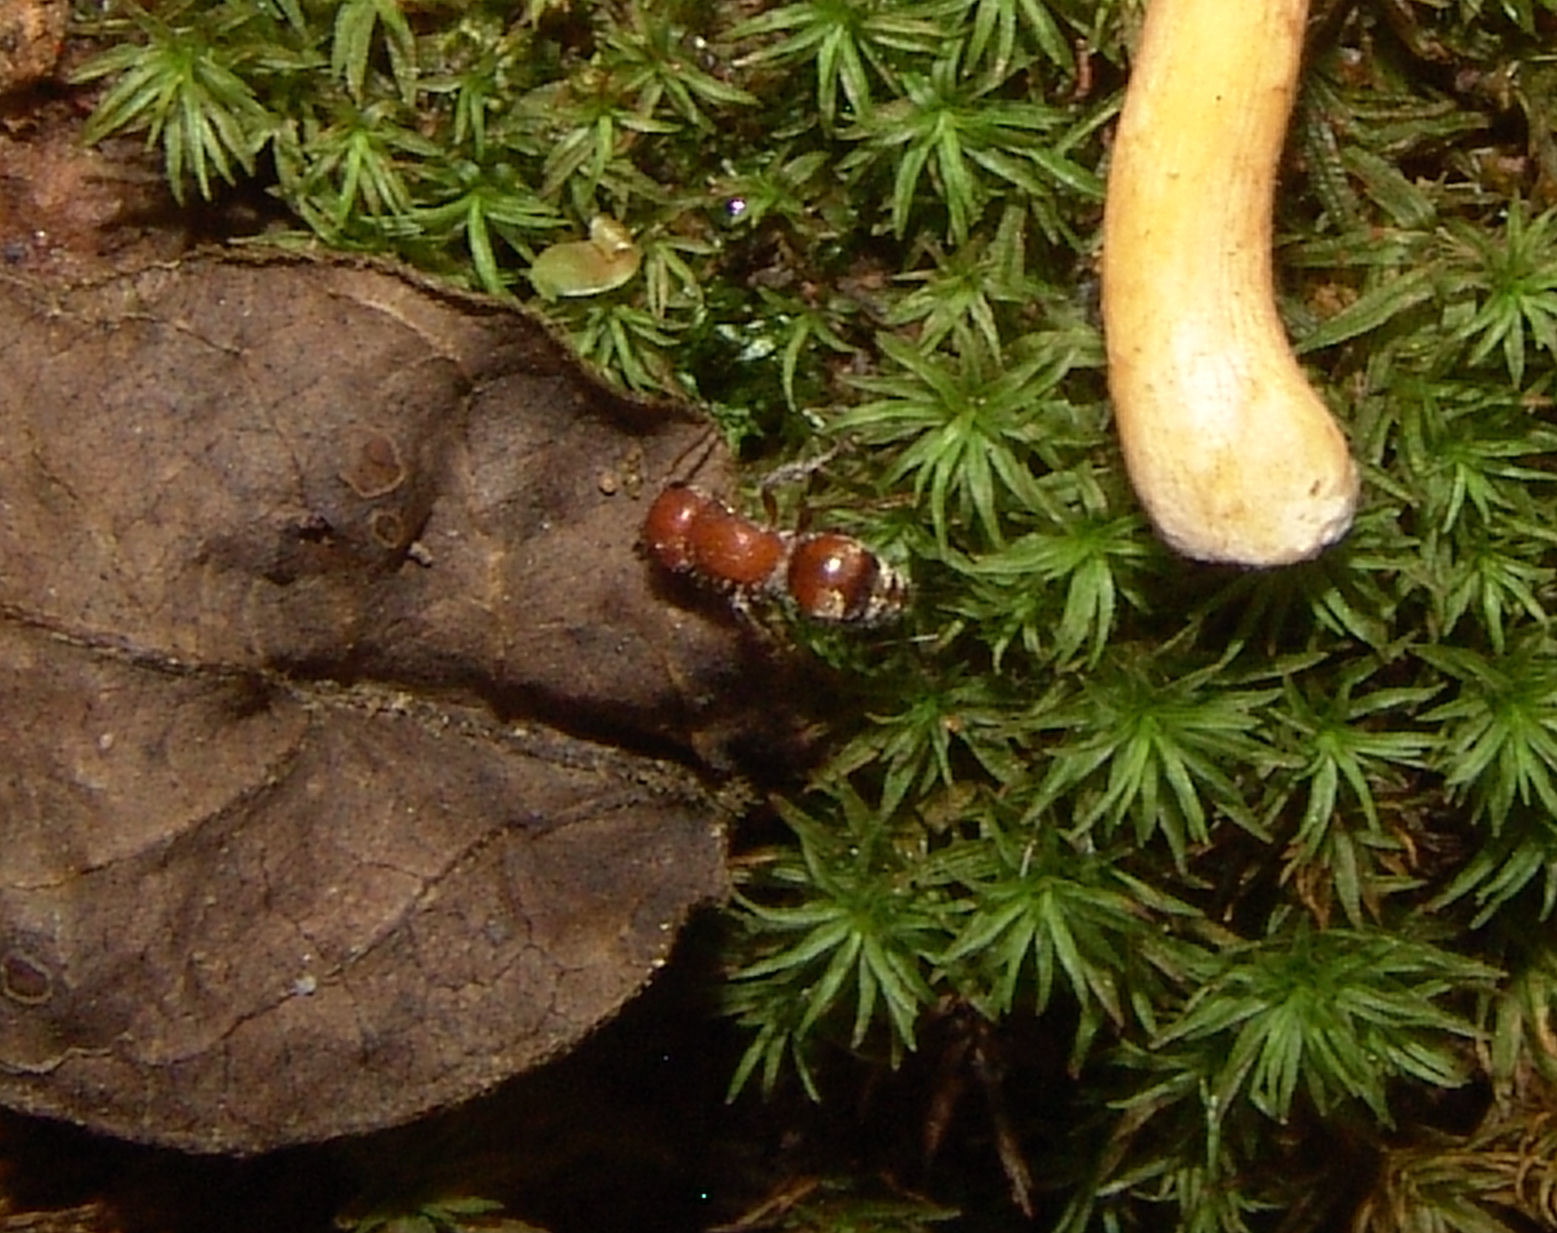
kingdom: Animalia
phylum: Arthropoda
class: Insecta
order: Hymenoptera
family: Mutillidae
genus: Pseudomethoca
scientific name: Pseudomethoca
